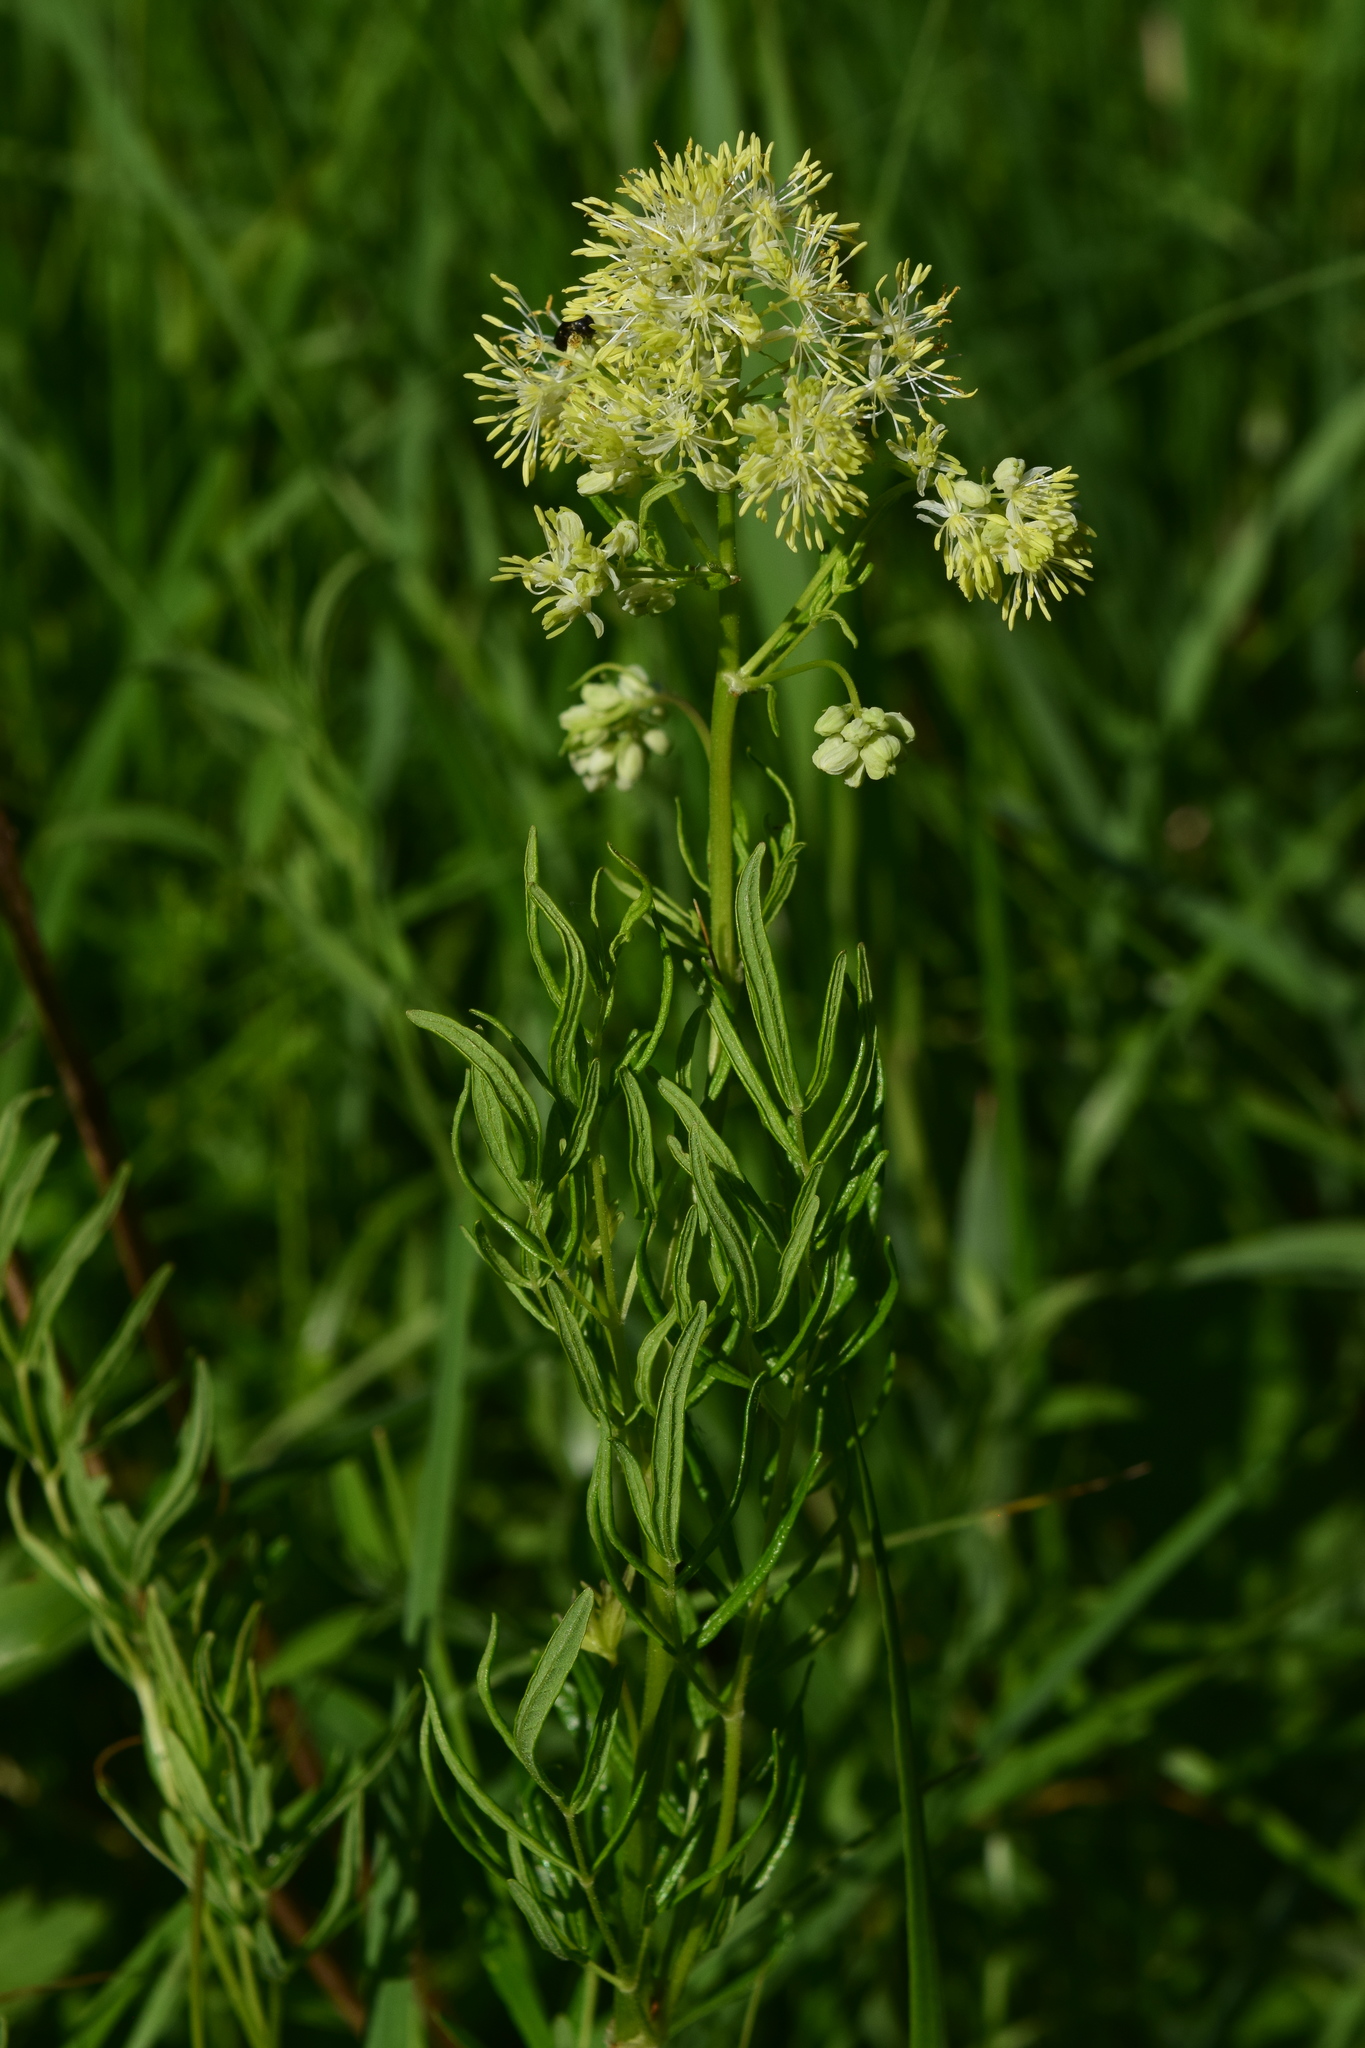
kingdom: Plantae
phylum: Tracheophyta
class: Magnoliopsida
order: Ranunculales
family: Ranunculaceae
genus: Thalictrum
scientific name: Thalictrum lucidum
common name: Shining meadow-rue
